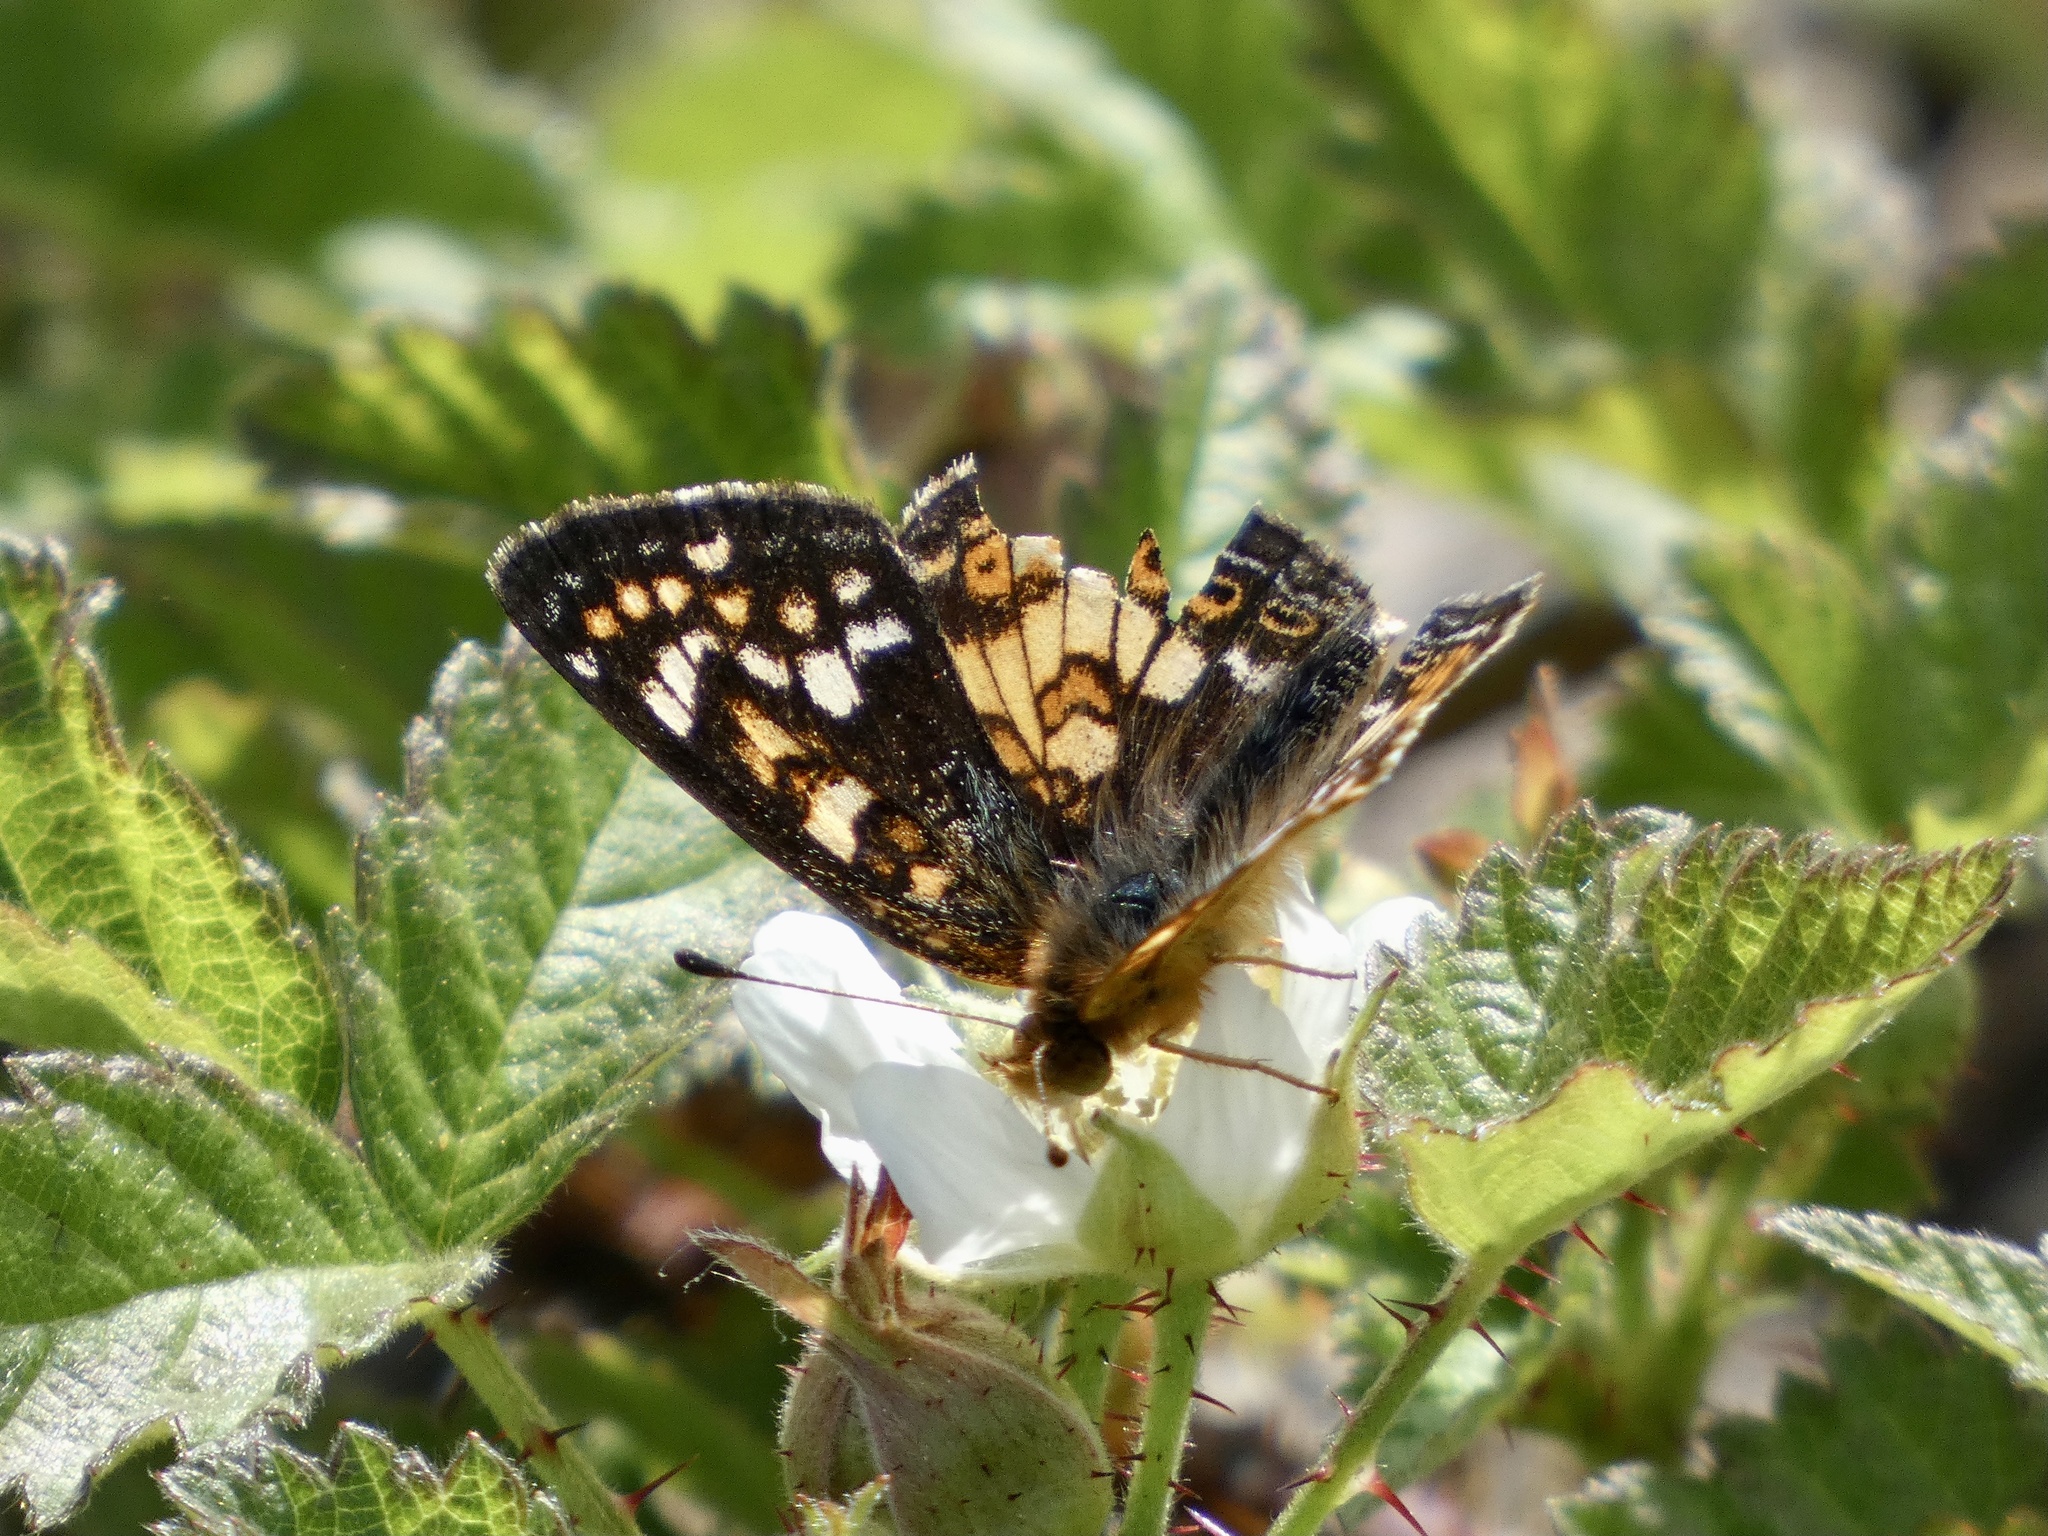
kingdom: Animalia
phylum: Arthropoda
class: Insecta
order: Lepidoptera
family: Nymphalidae
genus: Phyciodes
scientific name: Phyciodes tharos
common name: Pearl crescent
